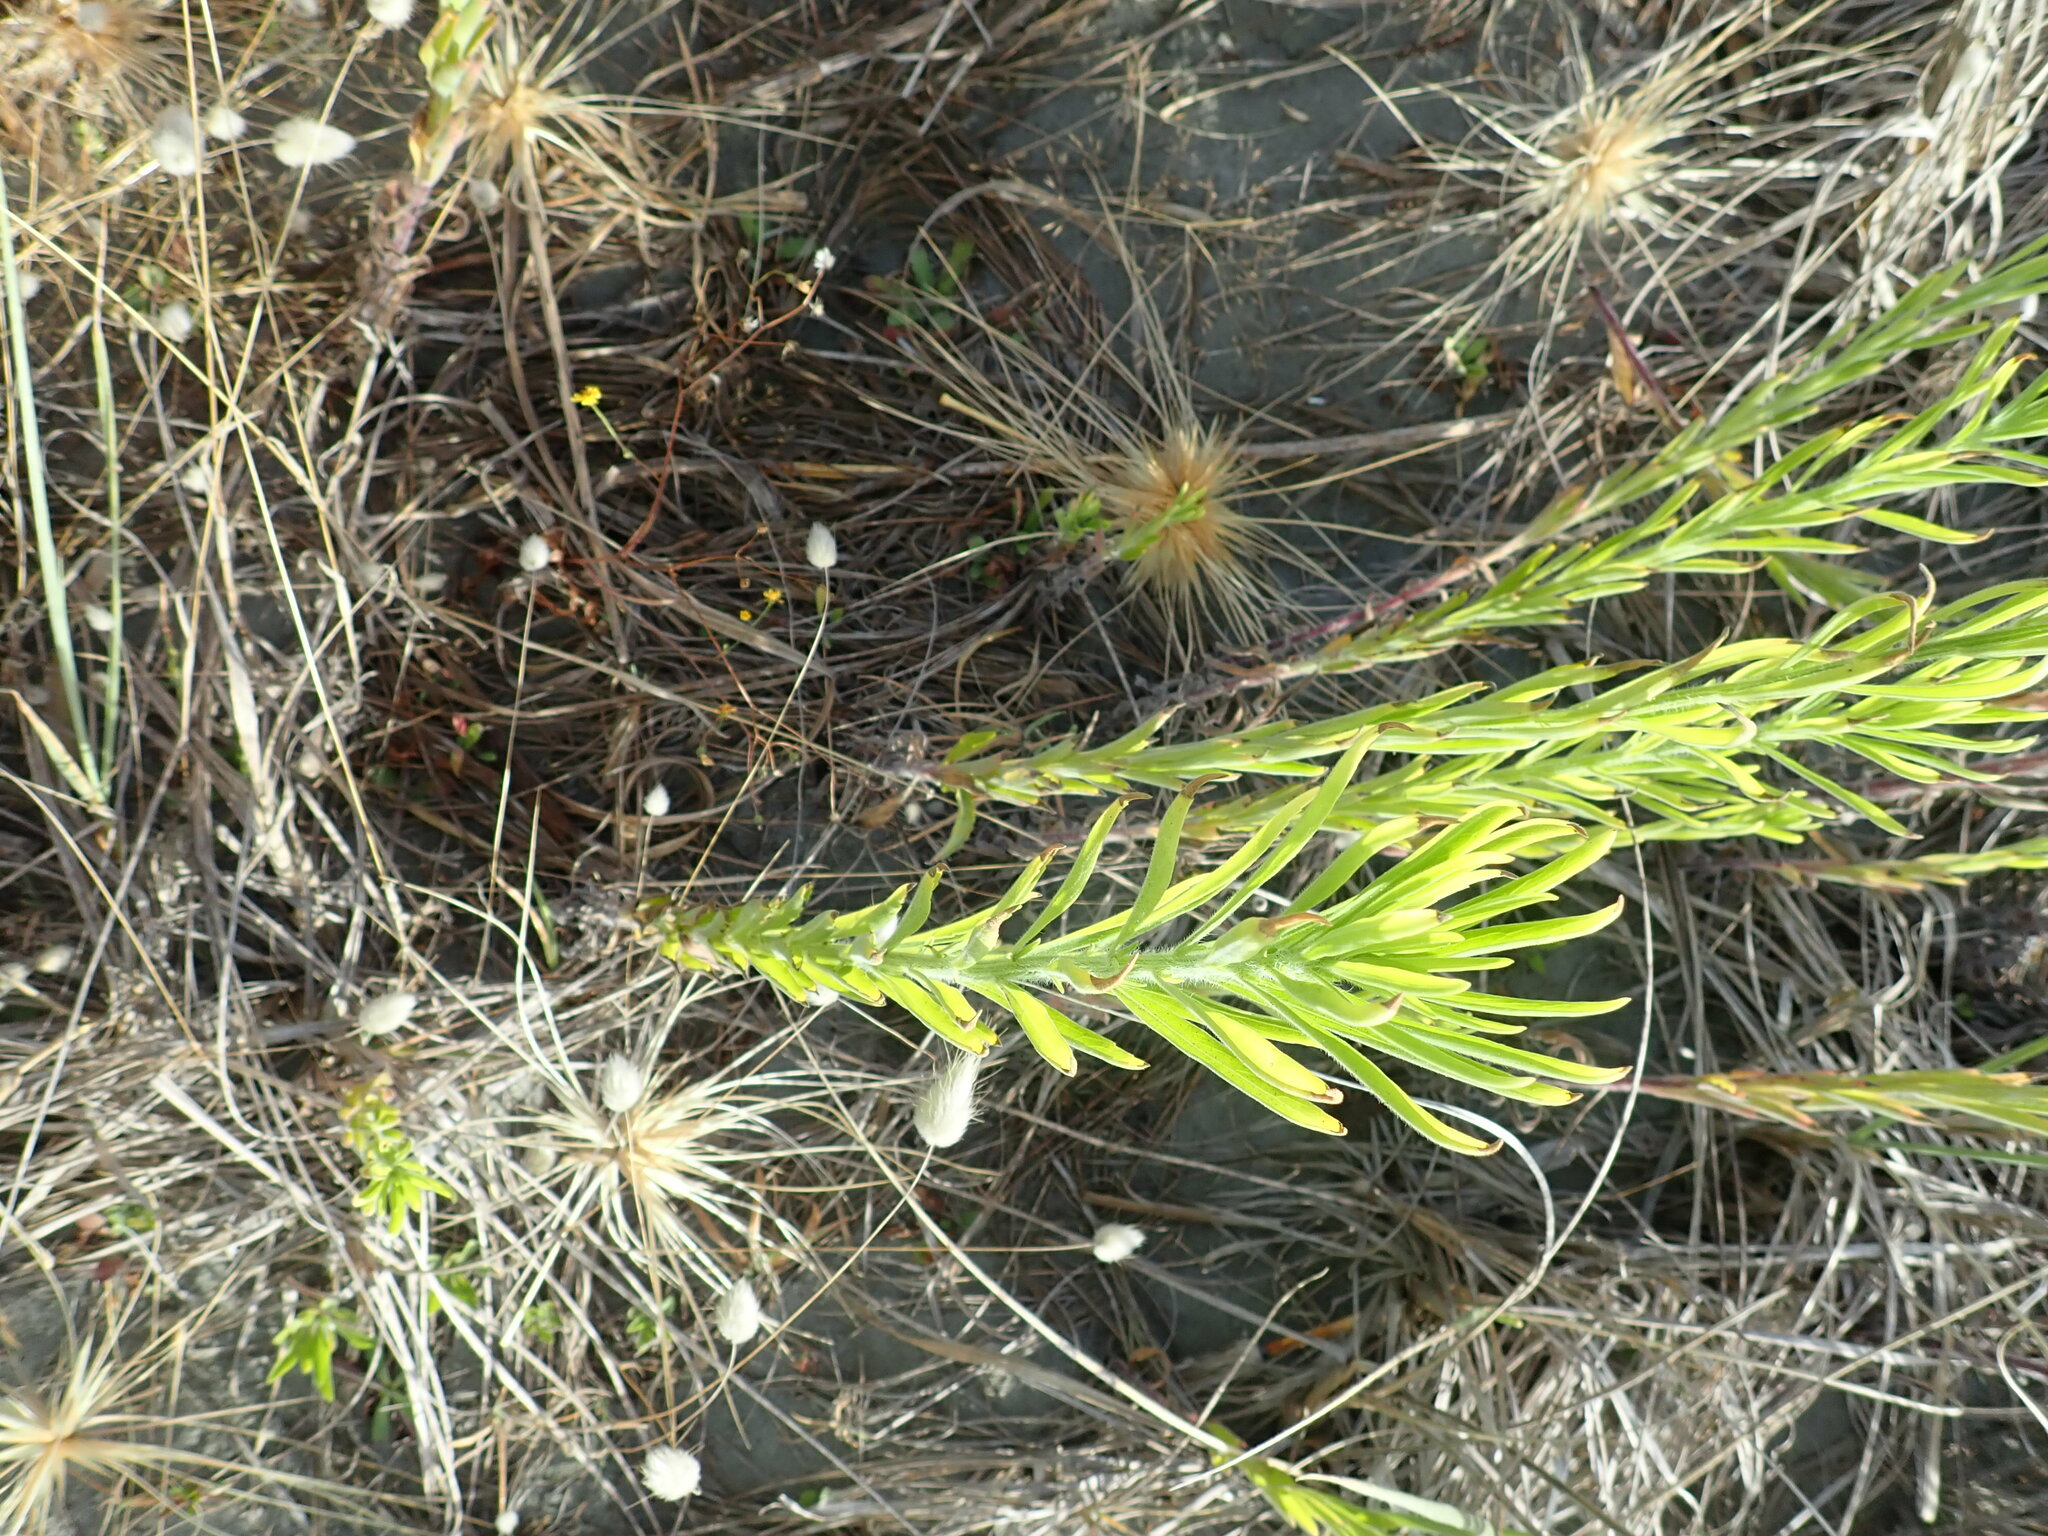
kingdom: Plantae
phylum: Tracheophyta
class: Magnoliopsida
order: Asterales
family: Asteraceae
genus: Erigeron
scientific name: Erigeron sumatrensis
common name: Daisy
